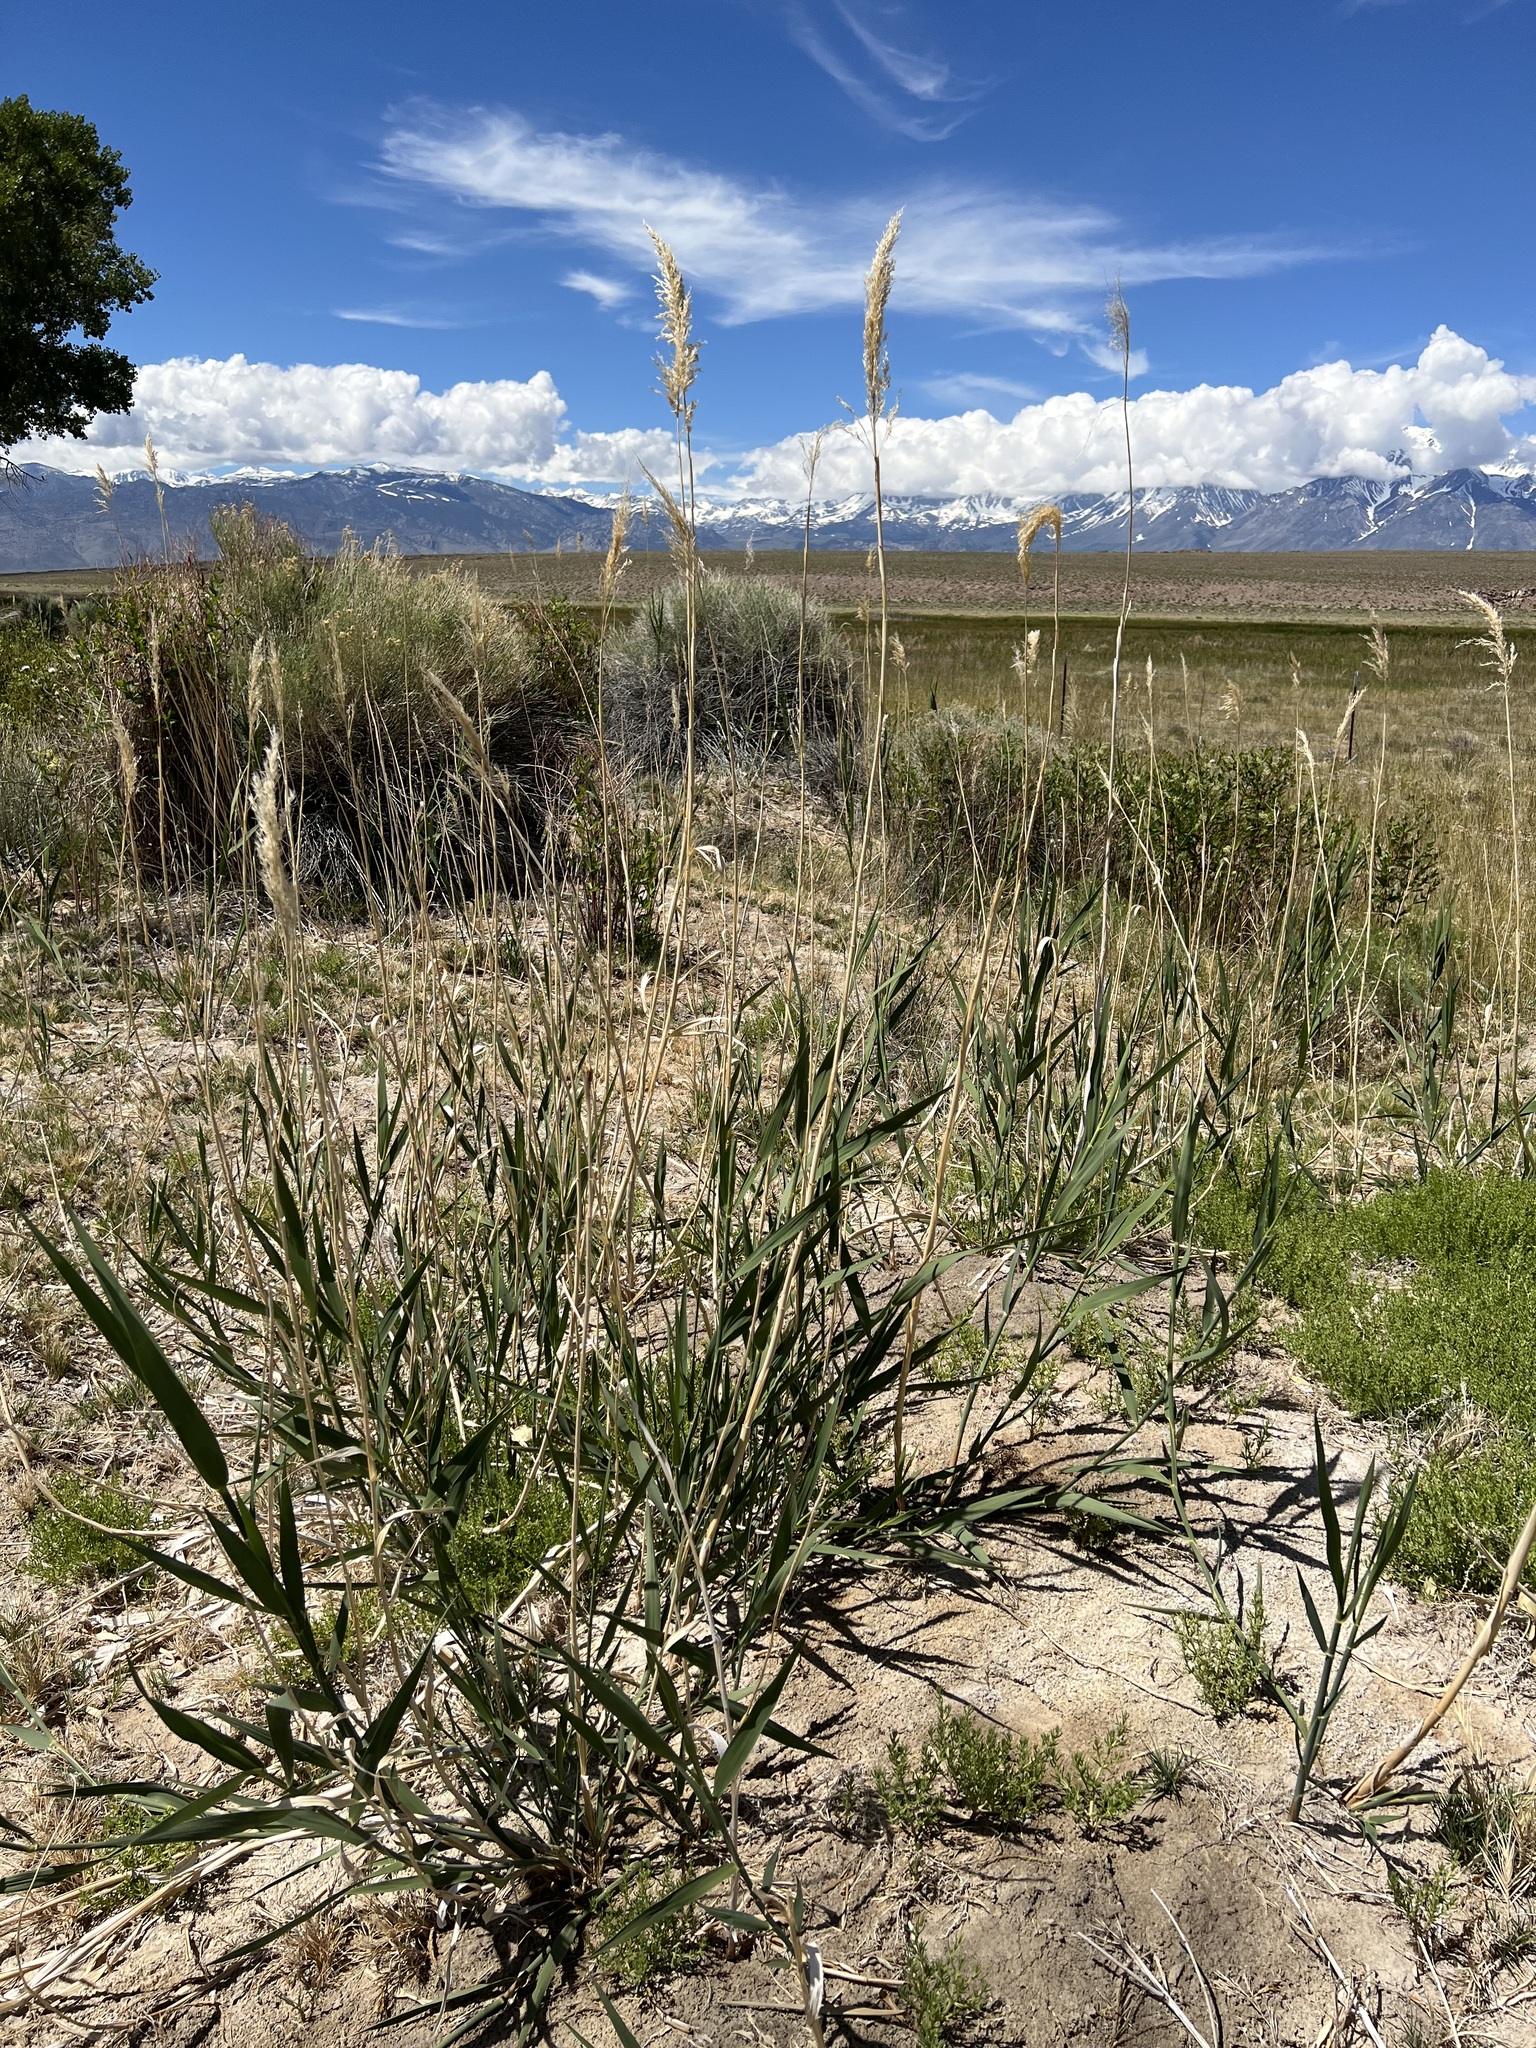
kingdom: Plantae
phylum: Tracheophyta
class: Liliopsida
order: Poales
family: Poaceae
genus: Phragmites
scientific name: Phragmites australis
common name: Common reed
